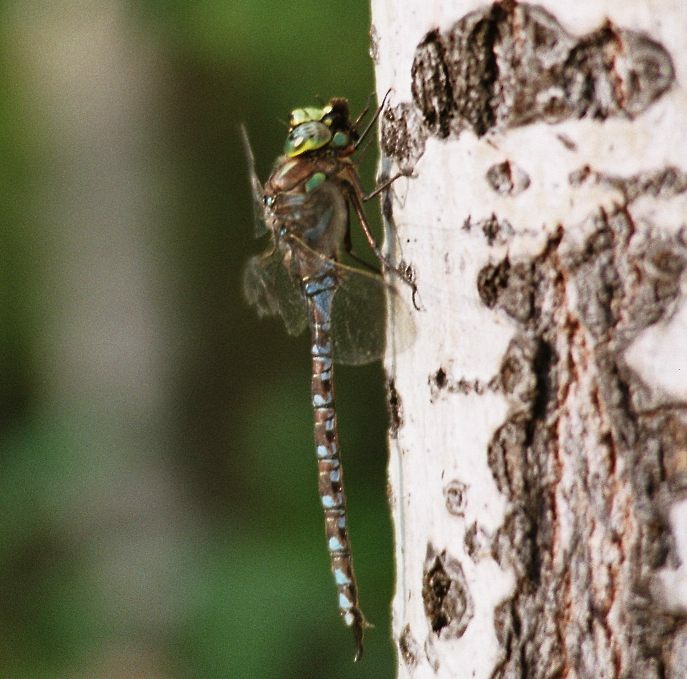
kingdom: Animalia
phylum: Arthropoda
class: Insecta
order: Odonata
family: Aeshnidae
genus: Aeshna
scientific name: Aeshna eremita
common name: Lake darner
